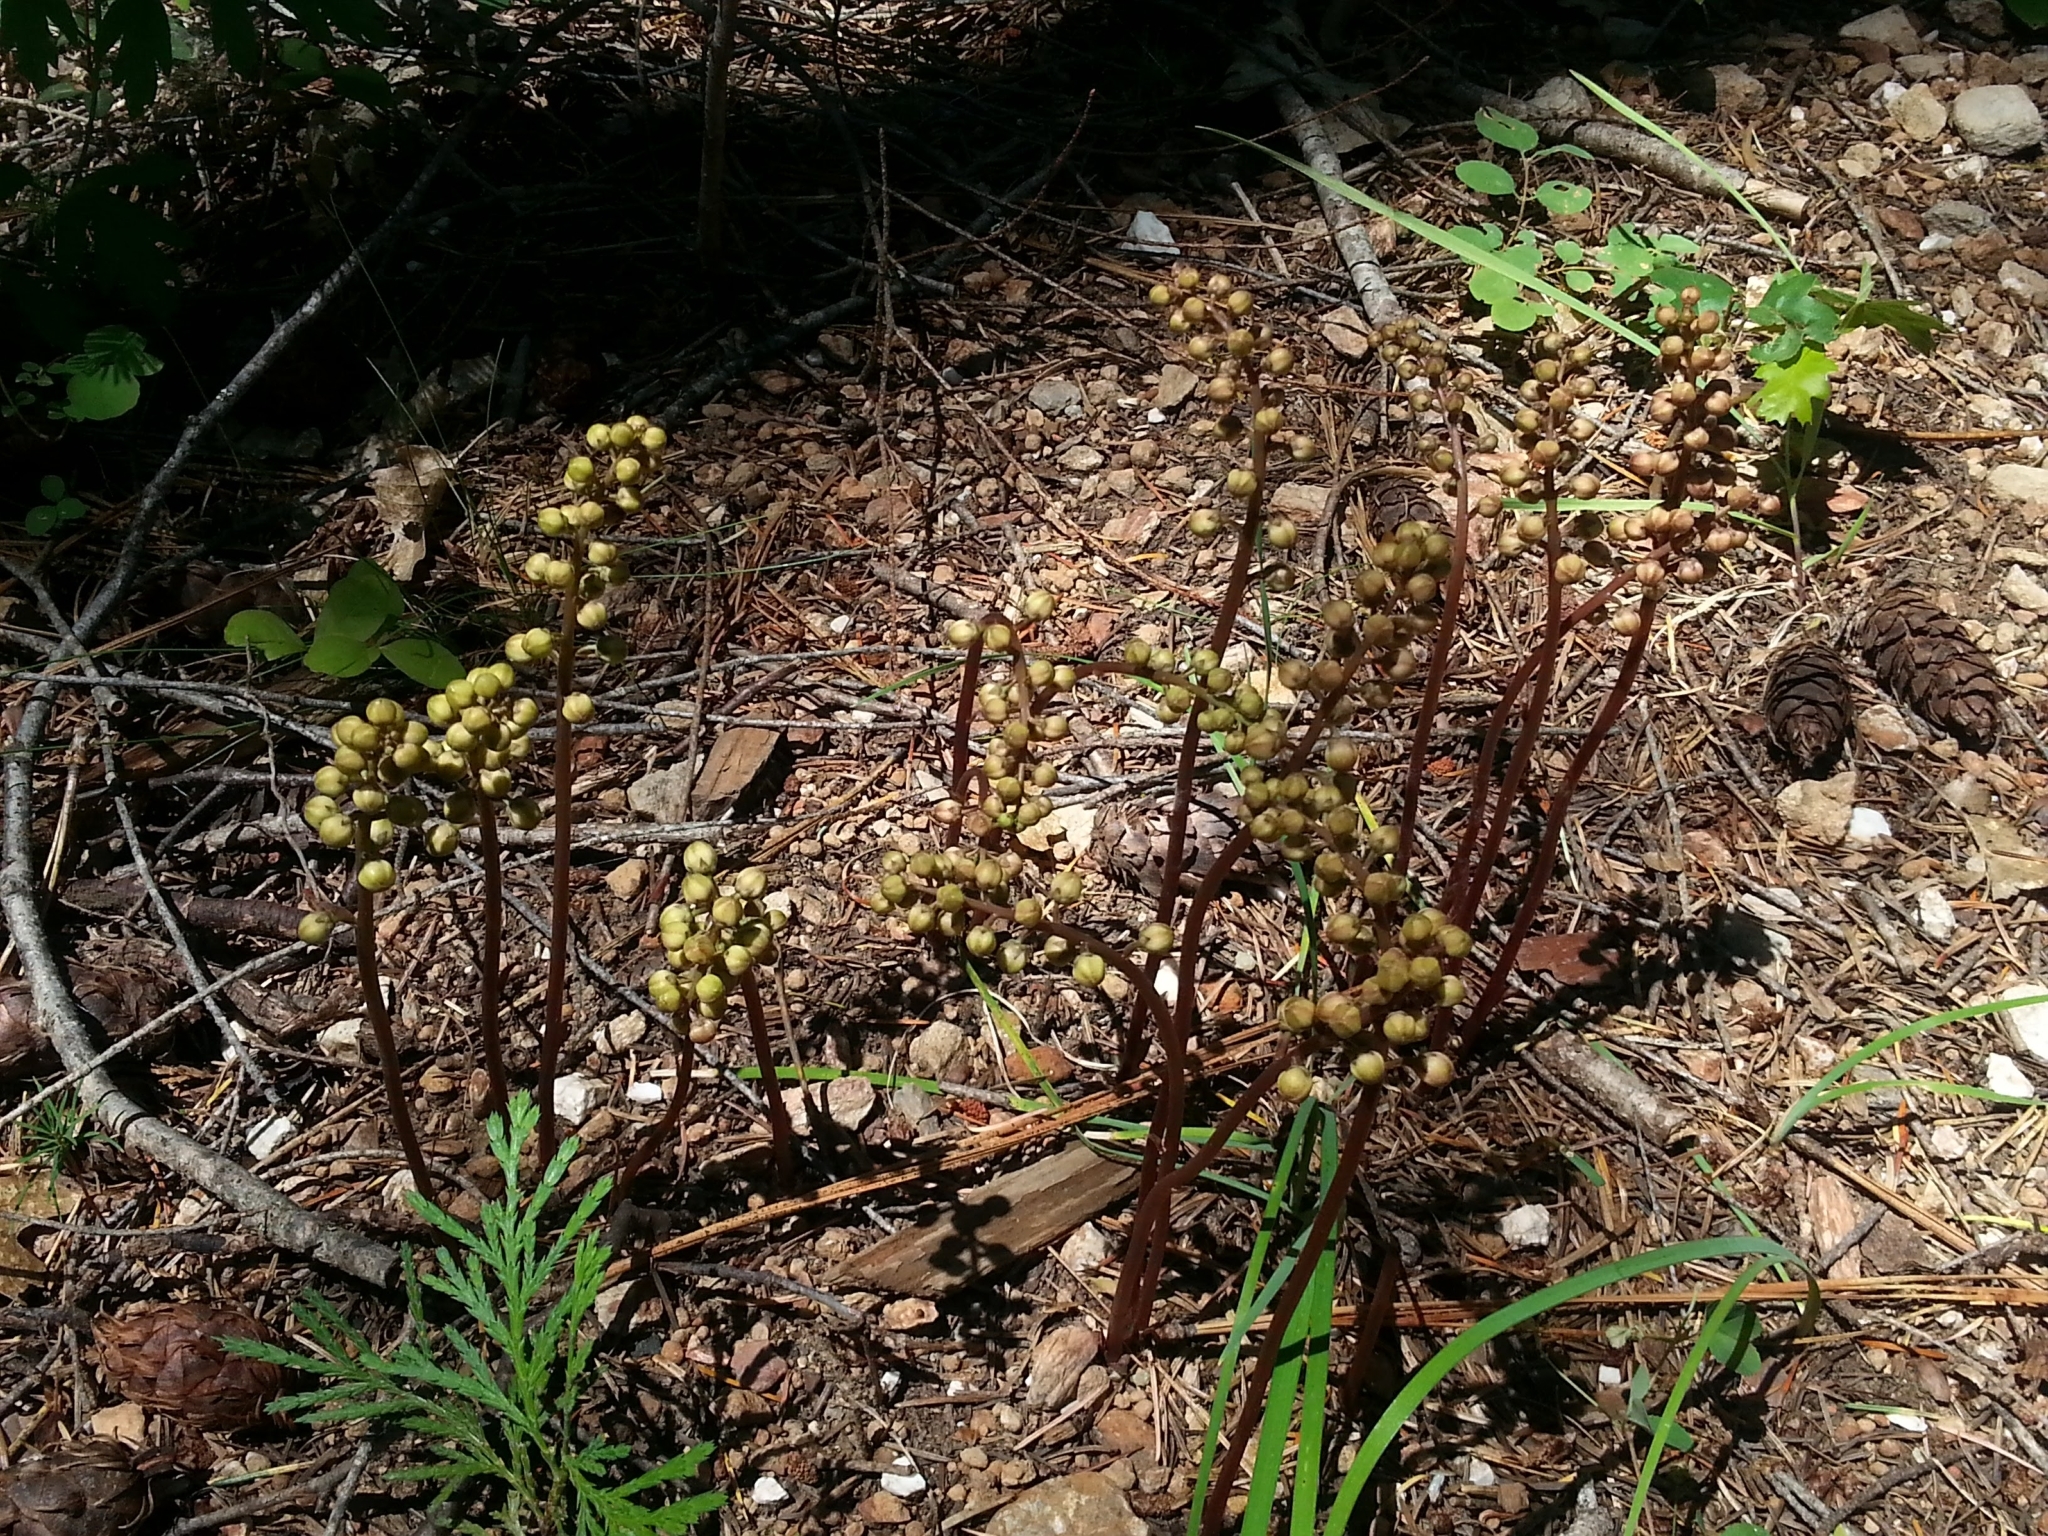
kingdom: Plantae
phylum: Tracheophyta
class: Magnoliopsida
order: Ericales
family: Ericaceae
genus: Pyrola
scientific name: Pyrola aphylla
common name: Leafless wintergreen
